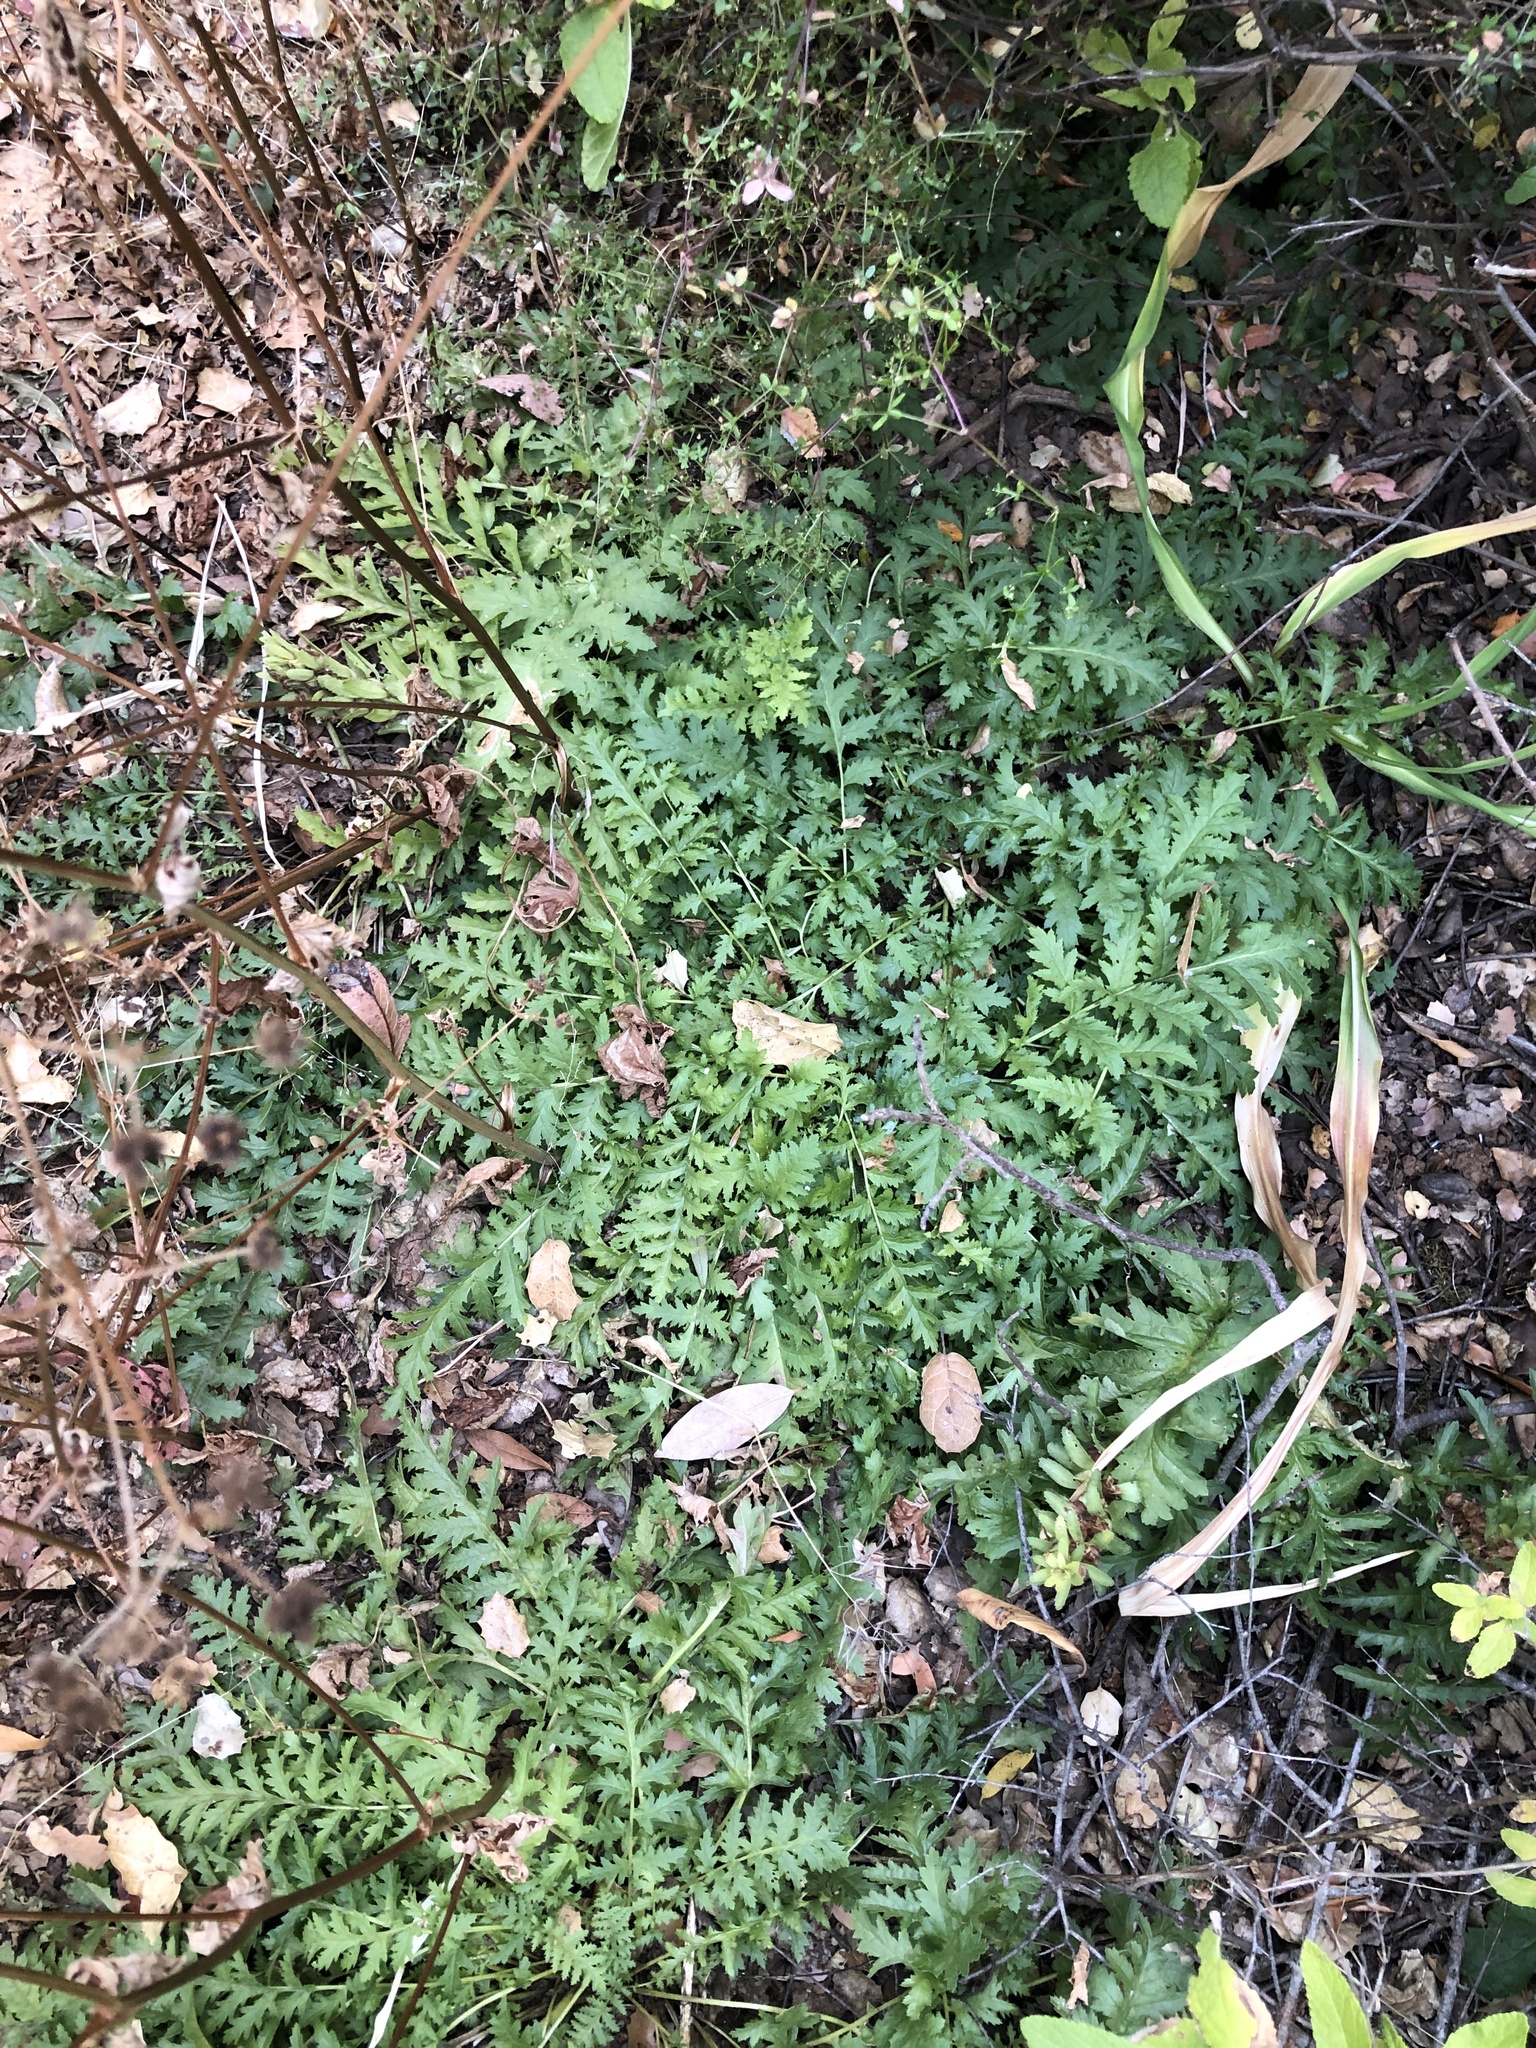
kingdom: Plantae
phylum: Tracheophyta
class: Magnoliopsida
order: Lamiales
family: Orobanchaceae
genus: Pedicularis
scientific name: Pedicularis densiflora
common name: Indian warrior
